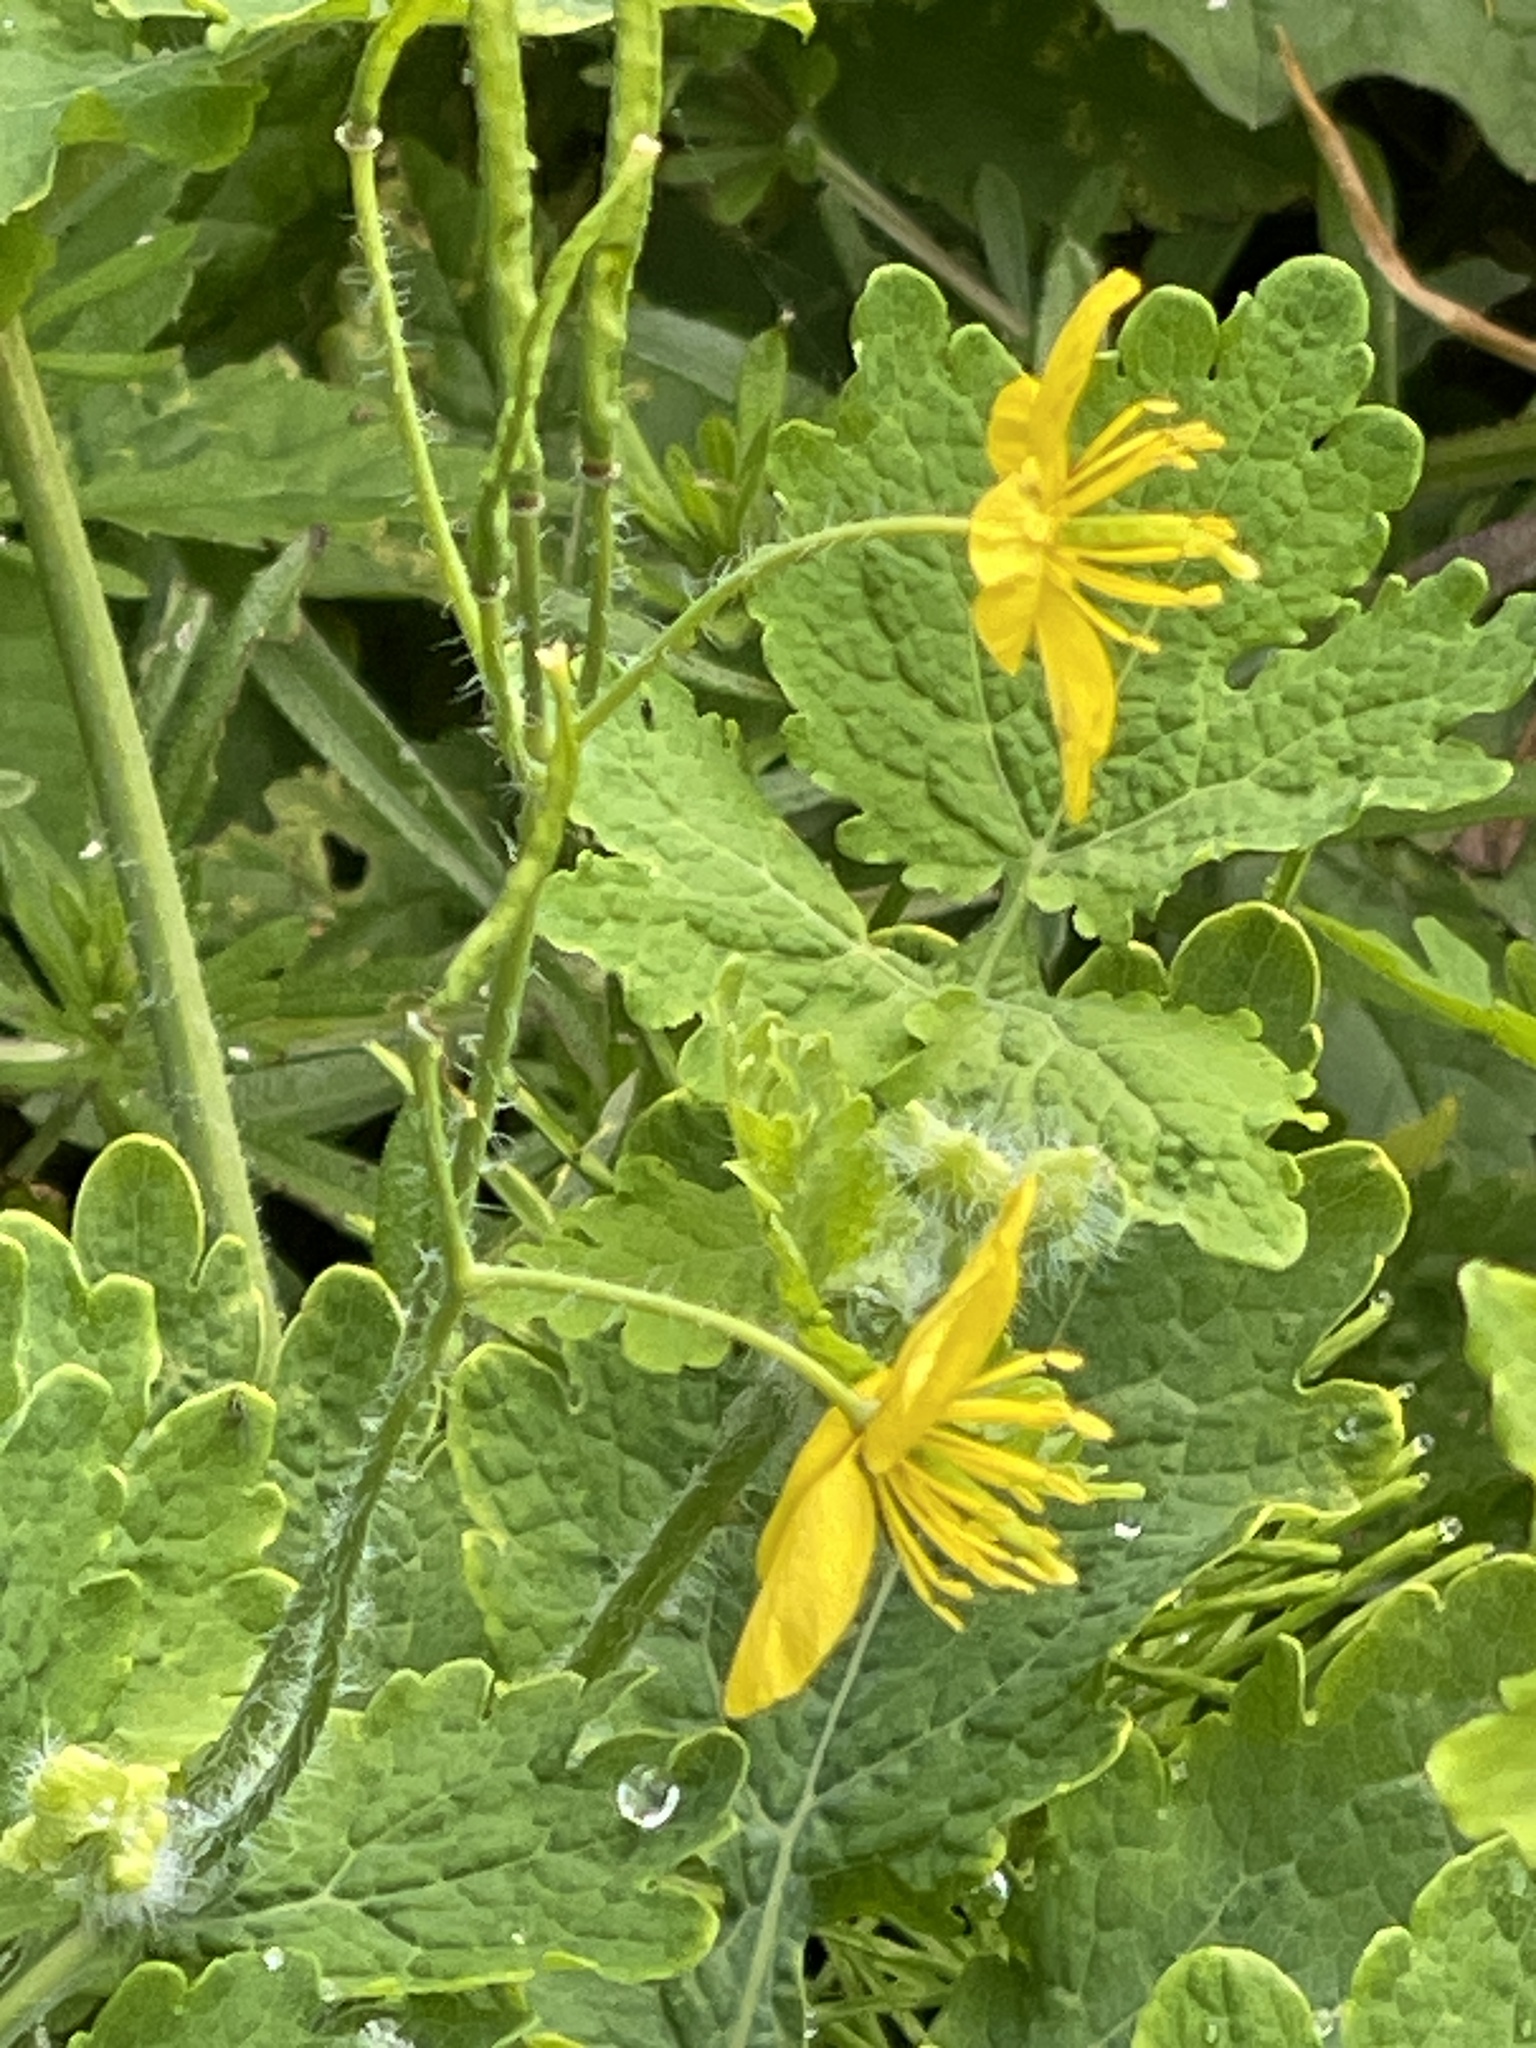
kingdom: Plantae
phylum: Tracheophyta
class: Magnoliopsida
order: Ranunculales
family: Papaveraceae
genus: Chelidonium
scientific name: Chelidonium majus
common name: Greater celandine
